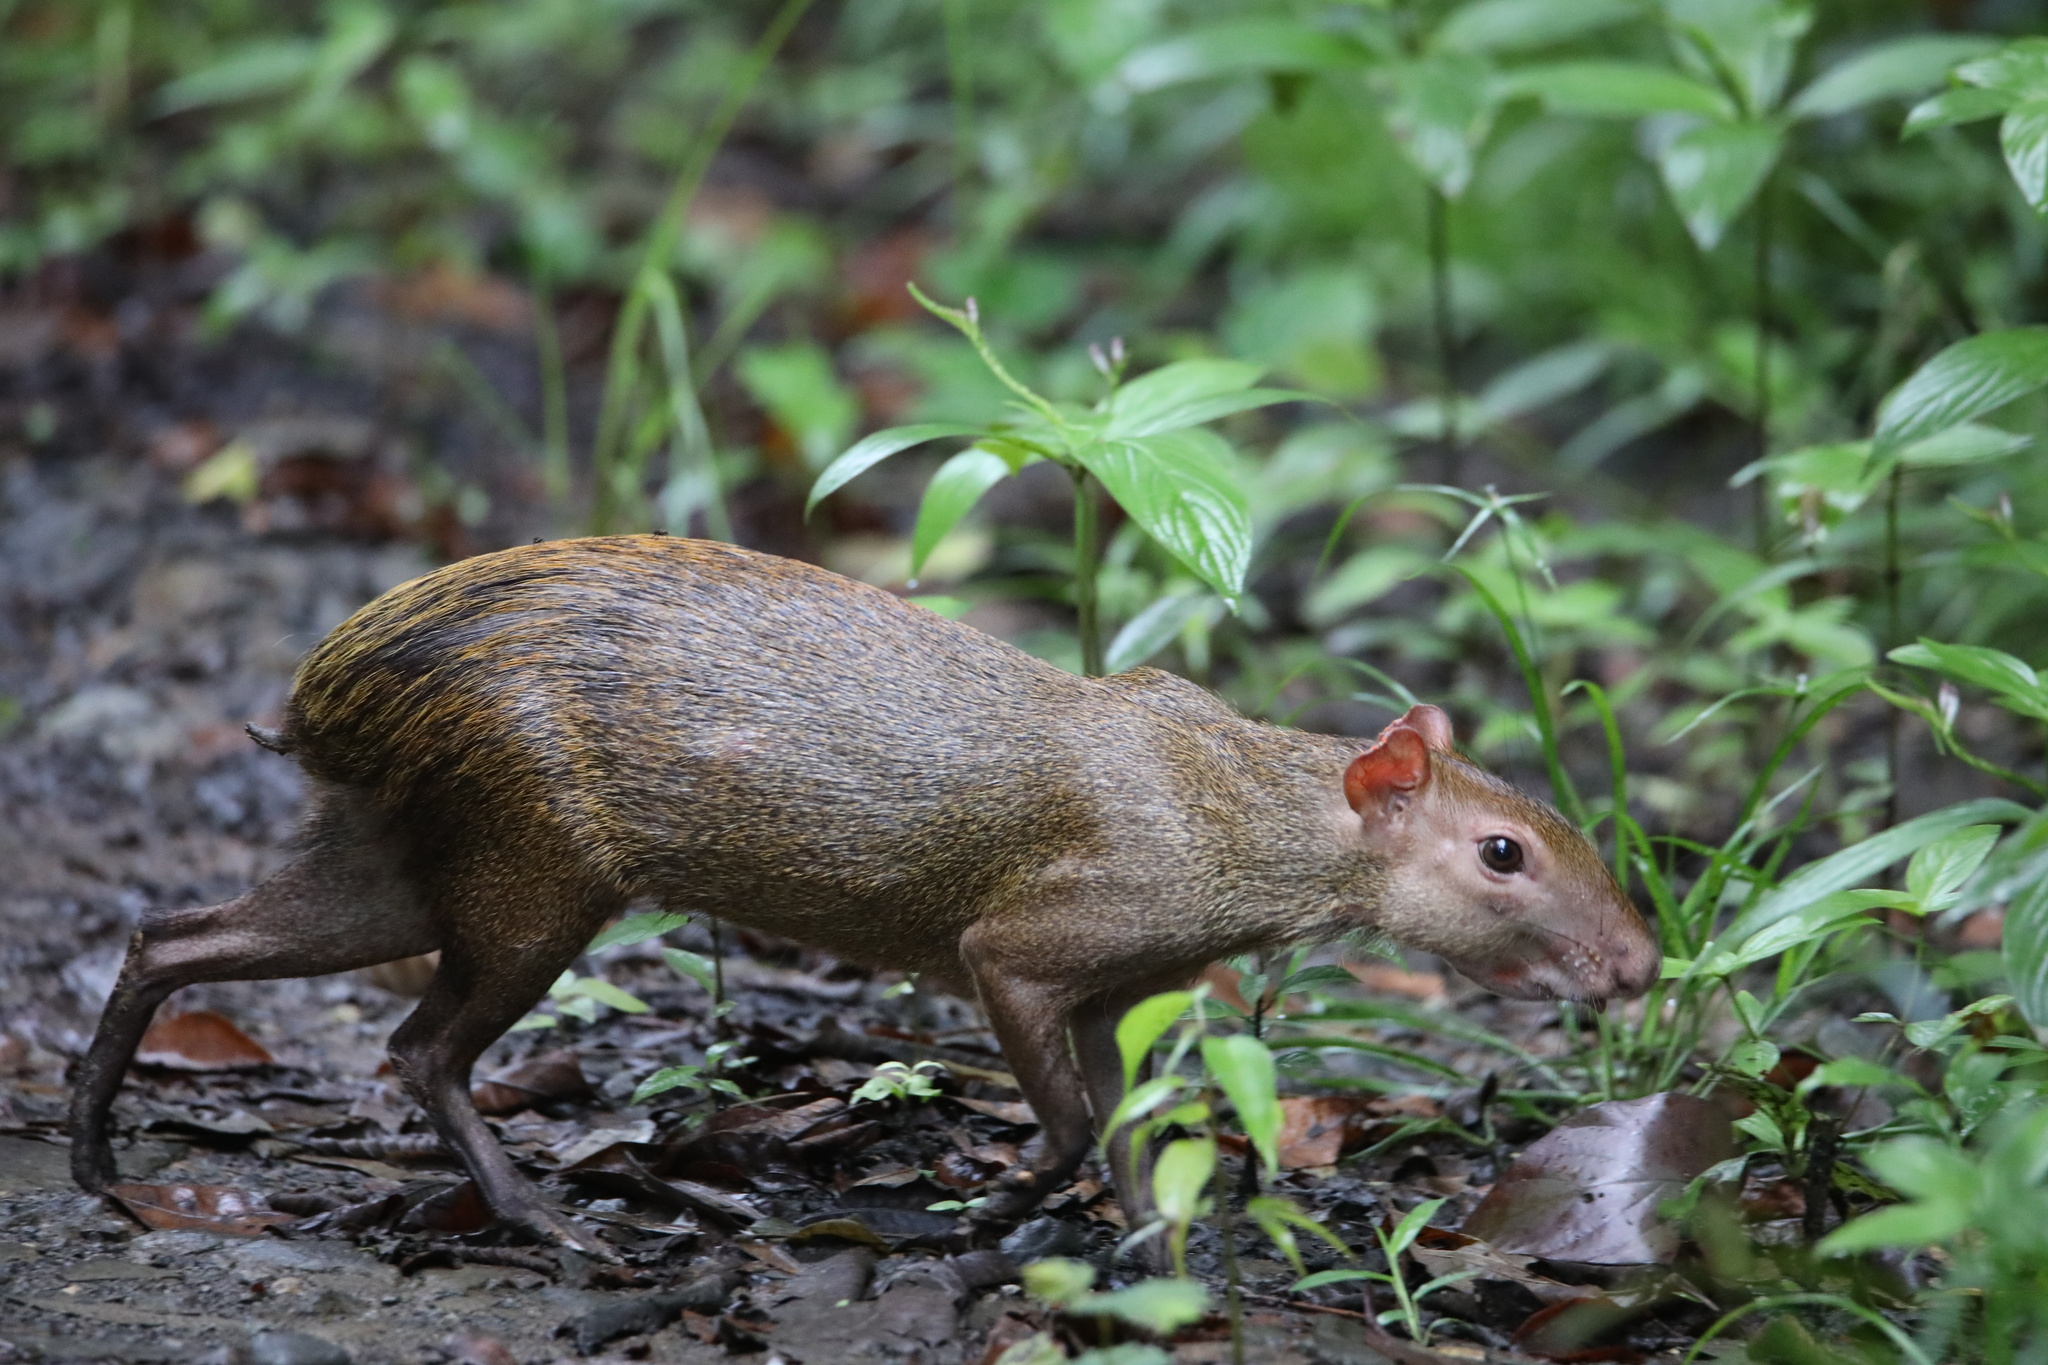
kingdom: Animalia
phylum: Chordata
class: Mammalia
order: Rodentia
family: Dasyproctidae
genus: Dasyprocta
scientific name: Dasyprocta punctata
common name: Central american agouti
